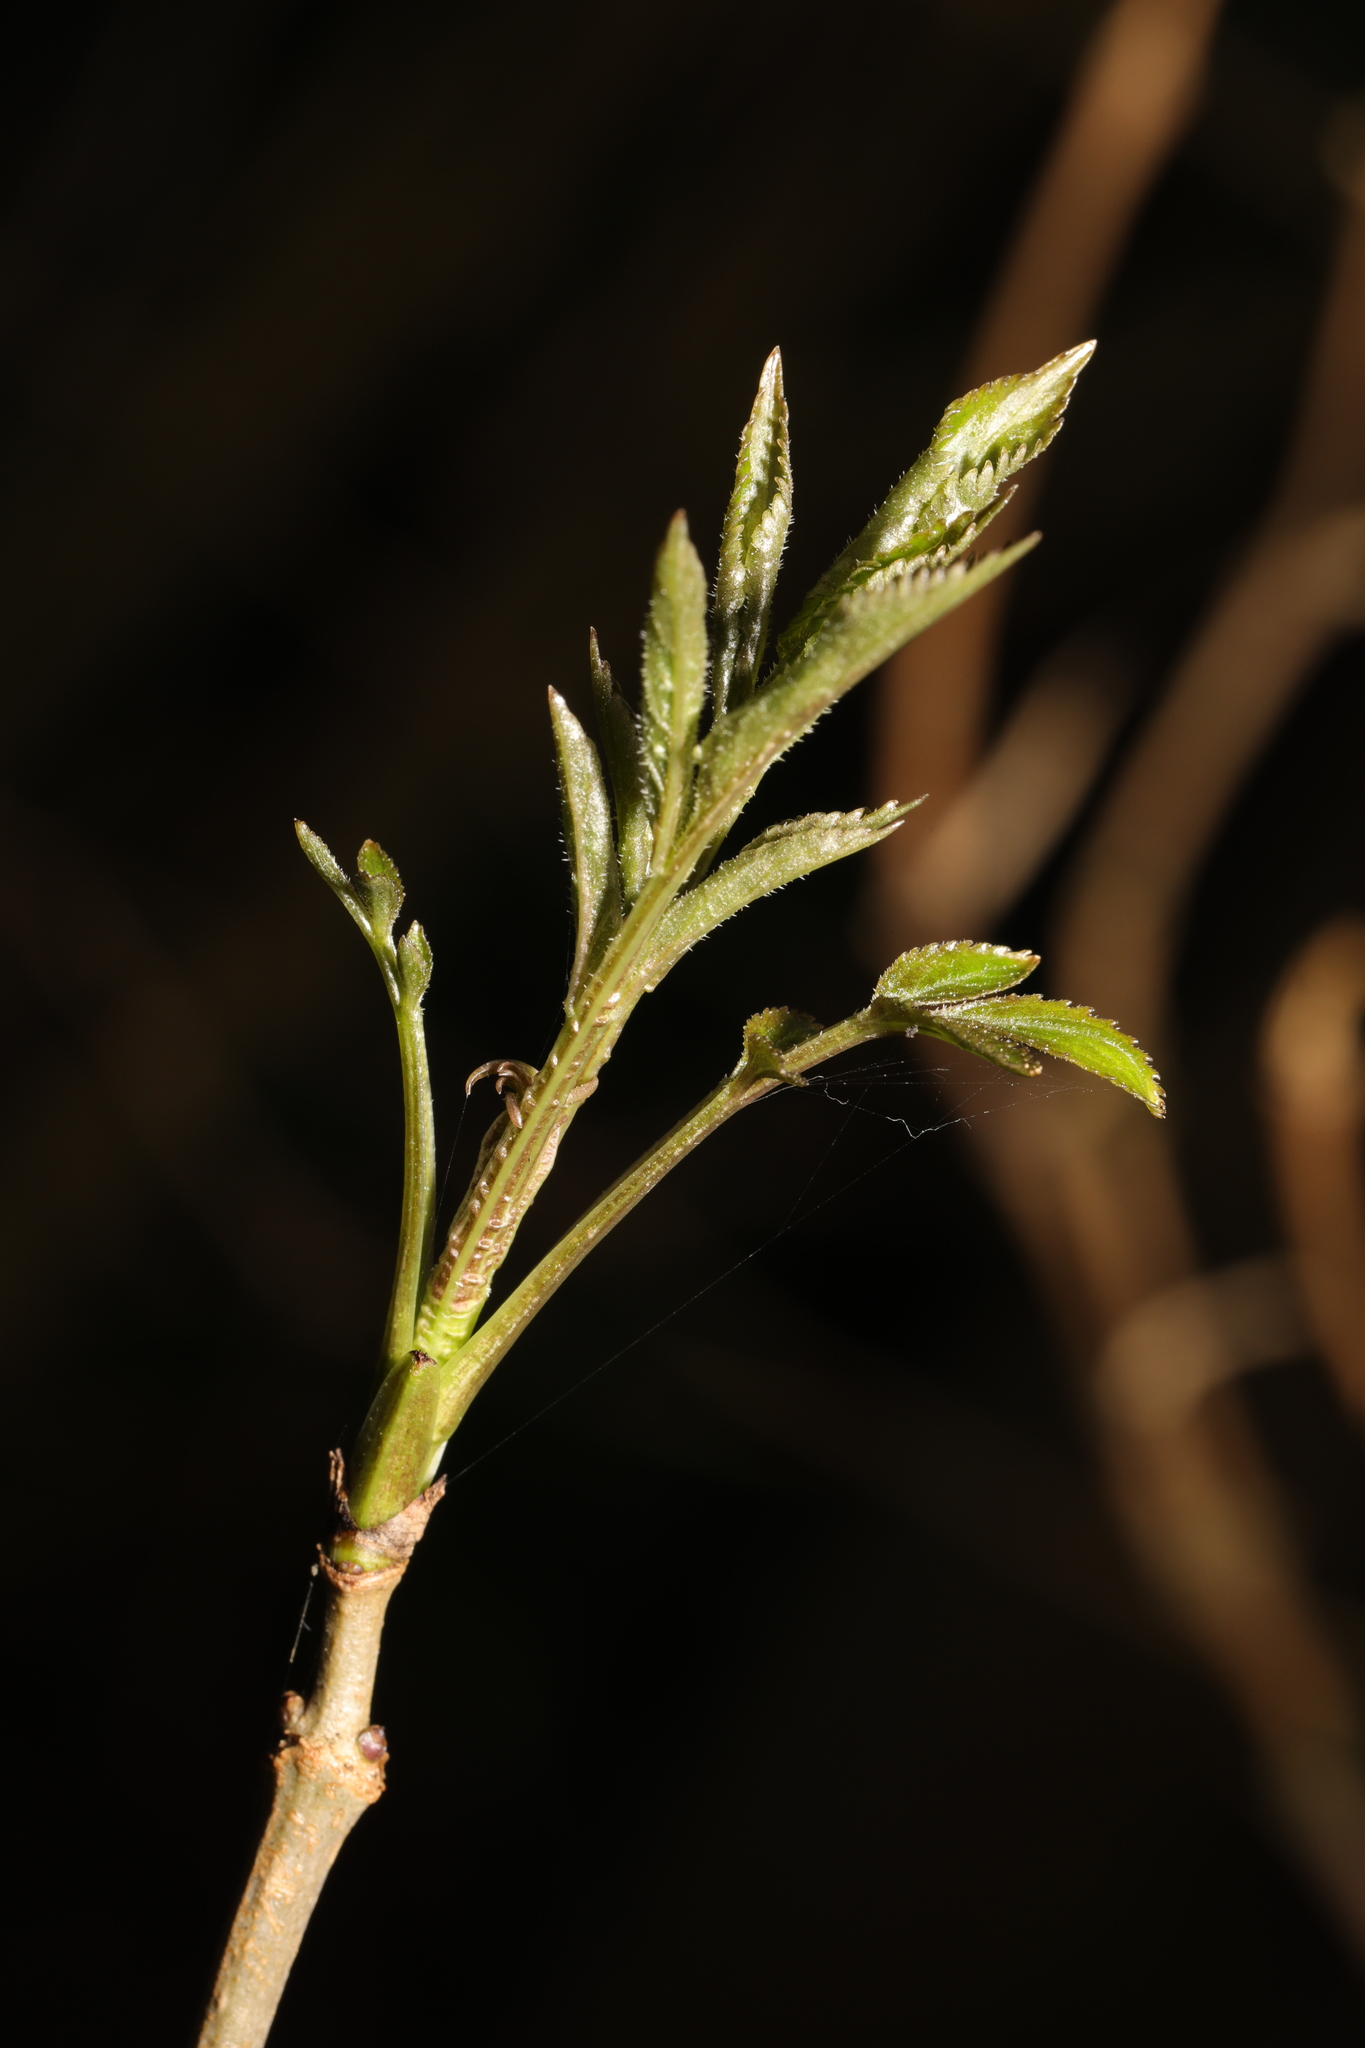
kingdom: Plantae
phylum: Tracheophyta
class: Magnoliopsida
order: Dipsacales
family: Viburnaceae
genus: Sambucus
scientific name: Sambucus nigra
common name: Elder
